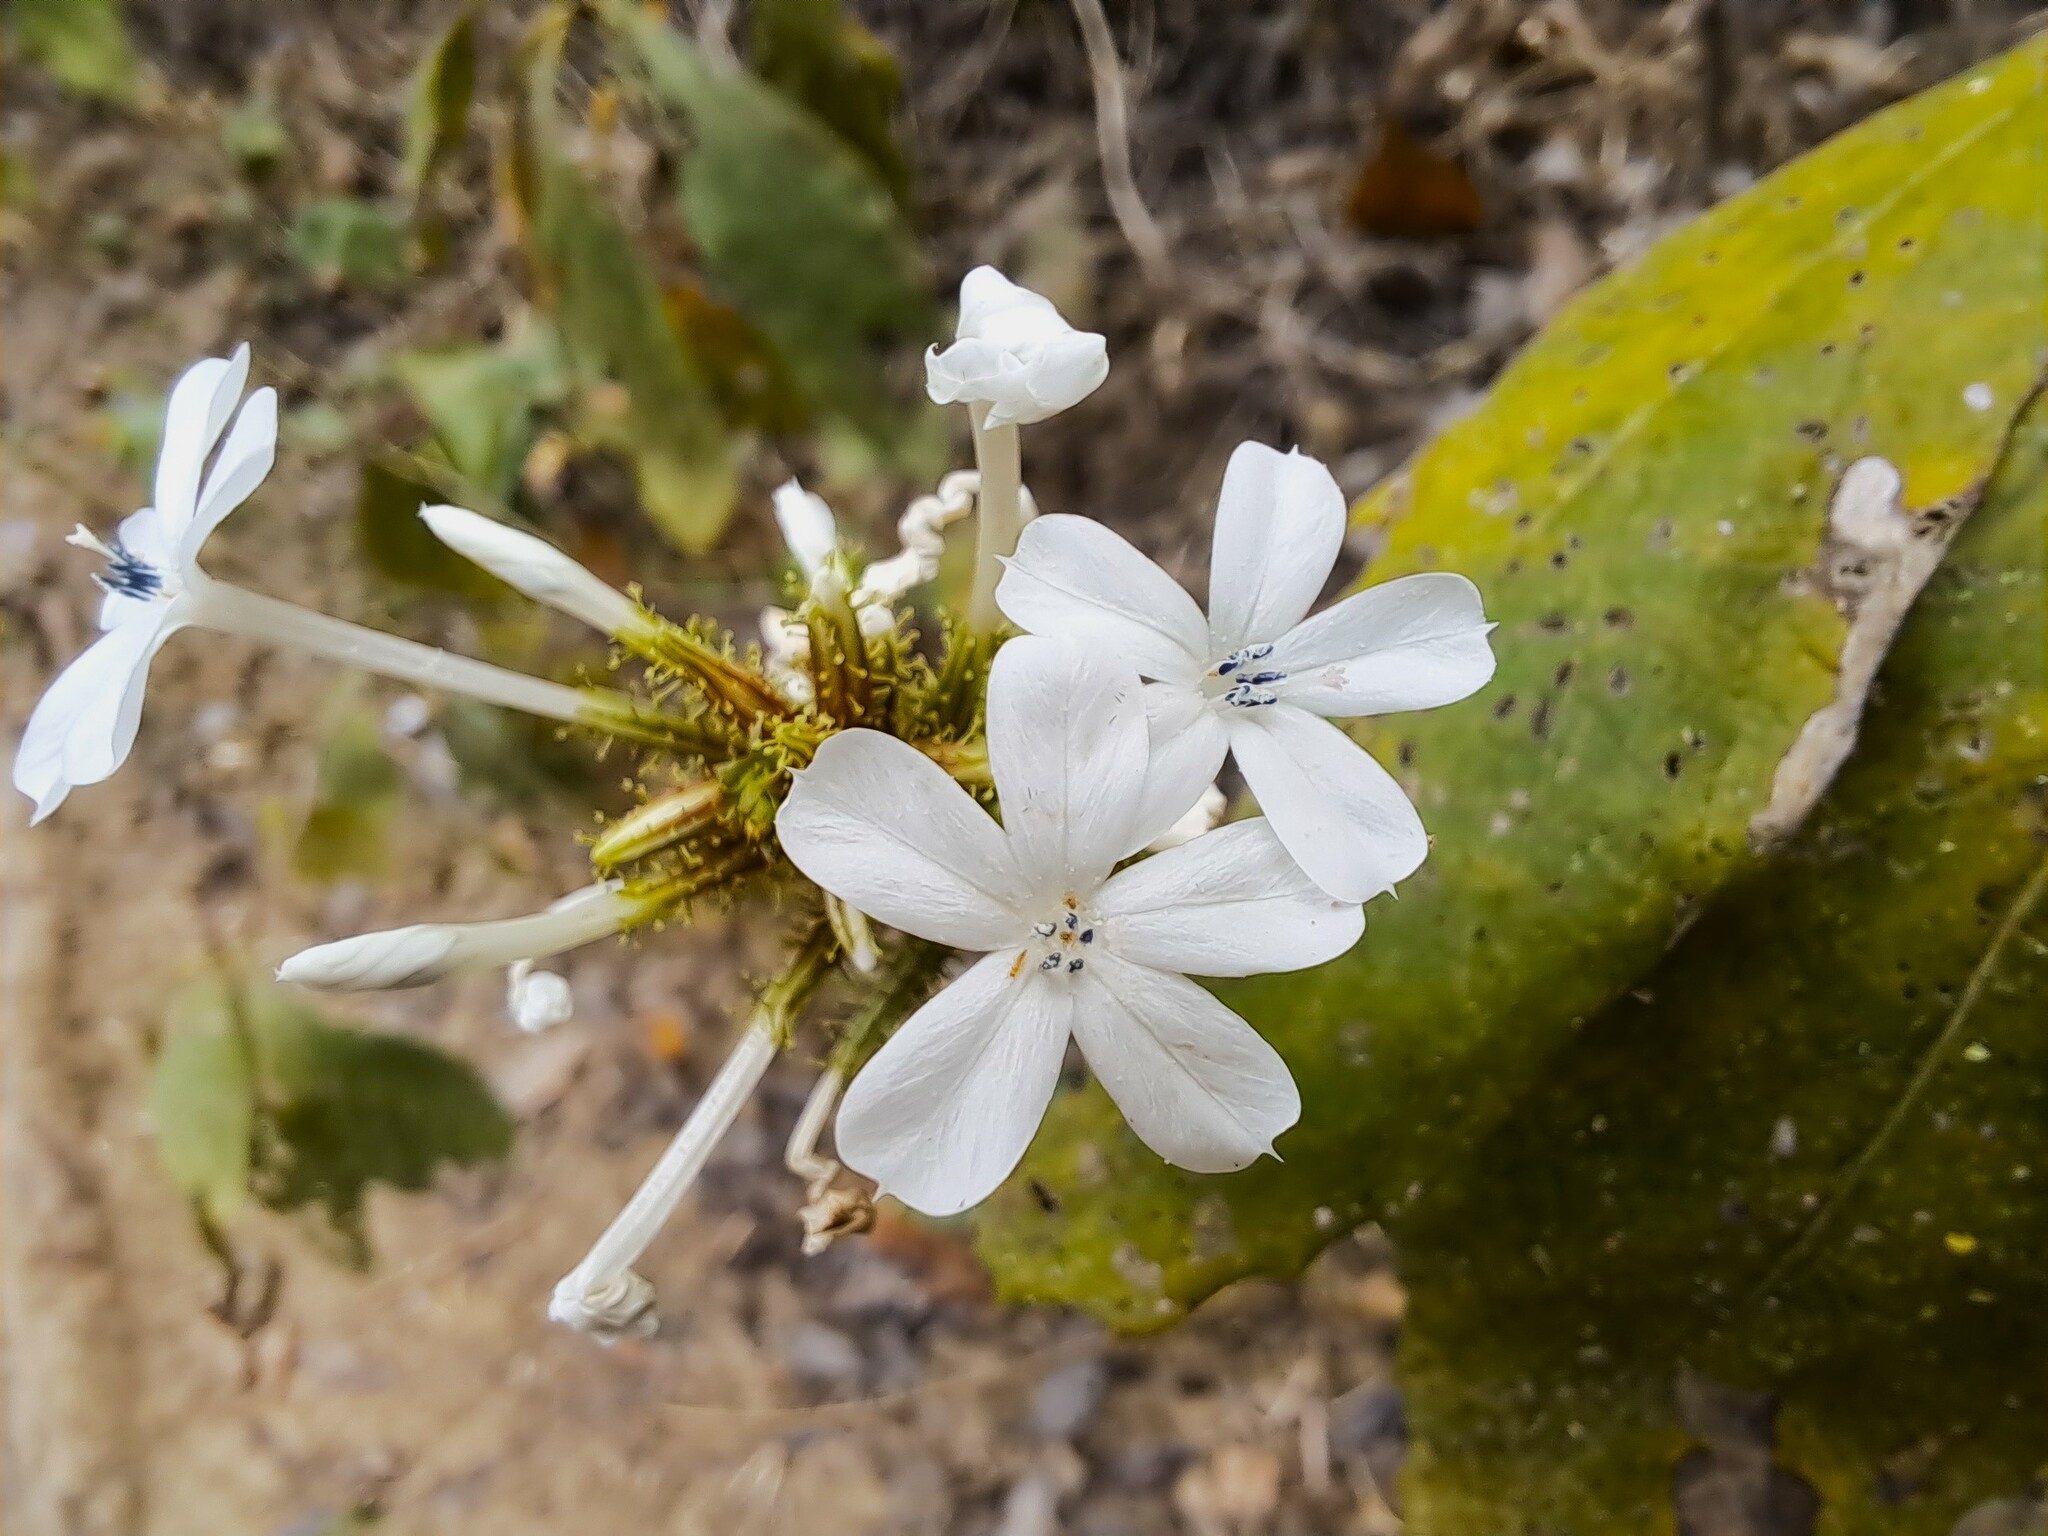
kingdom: Plantae
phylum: Tracheophyta
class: Magnoliopsida
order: Caryophyllales
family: Plumbaginaceae
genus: Plumbago
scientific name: Plumbago zeylanica
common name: Doctorbush
